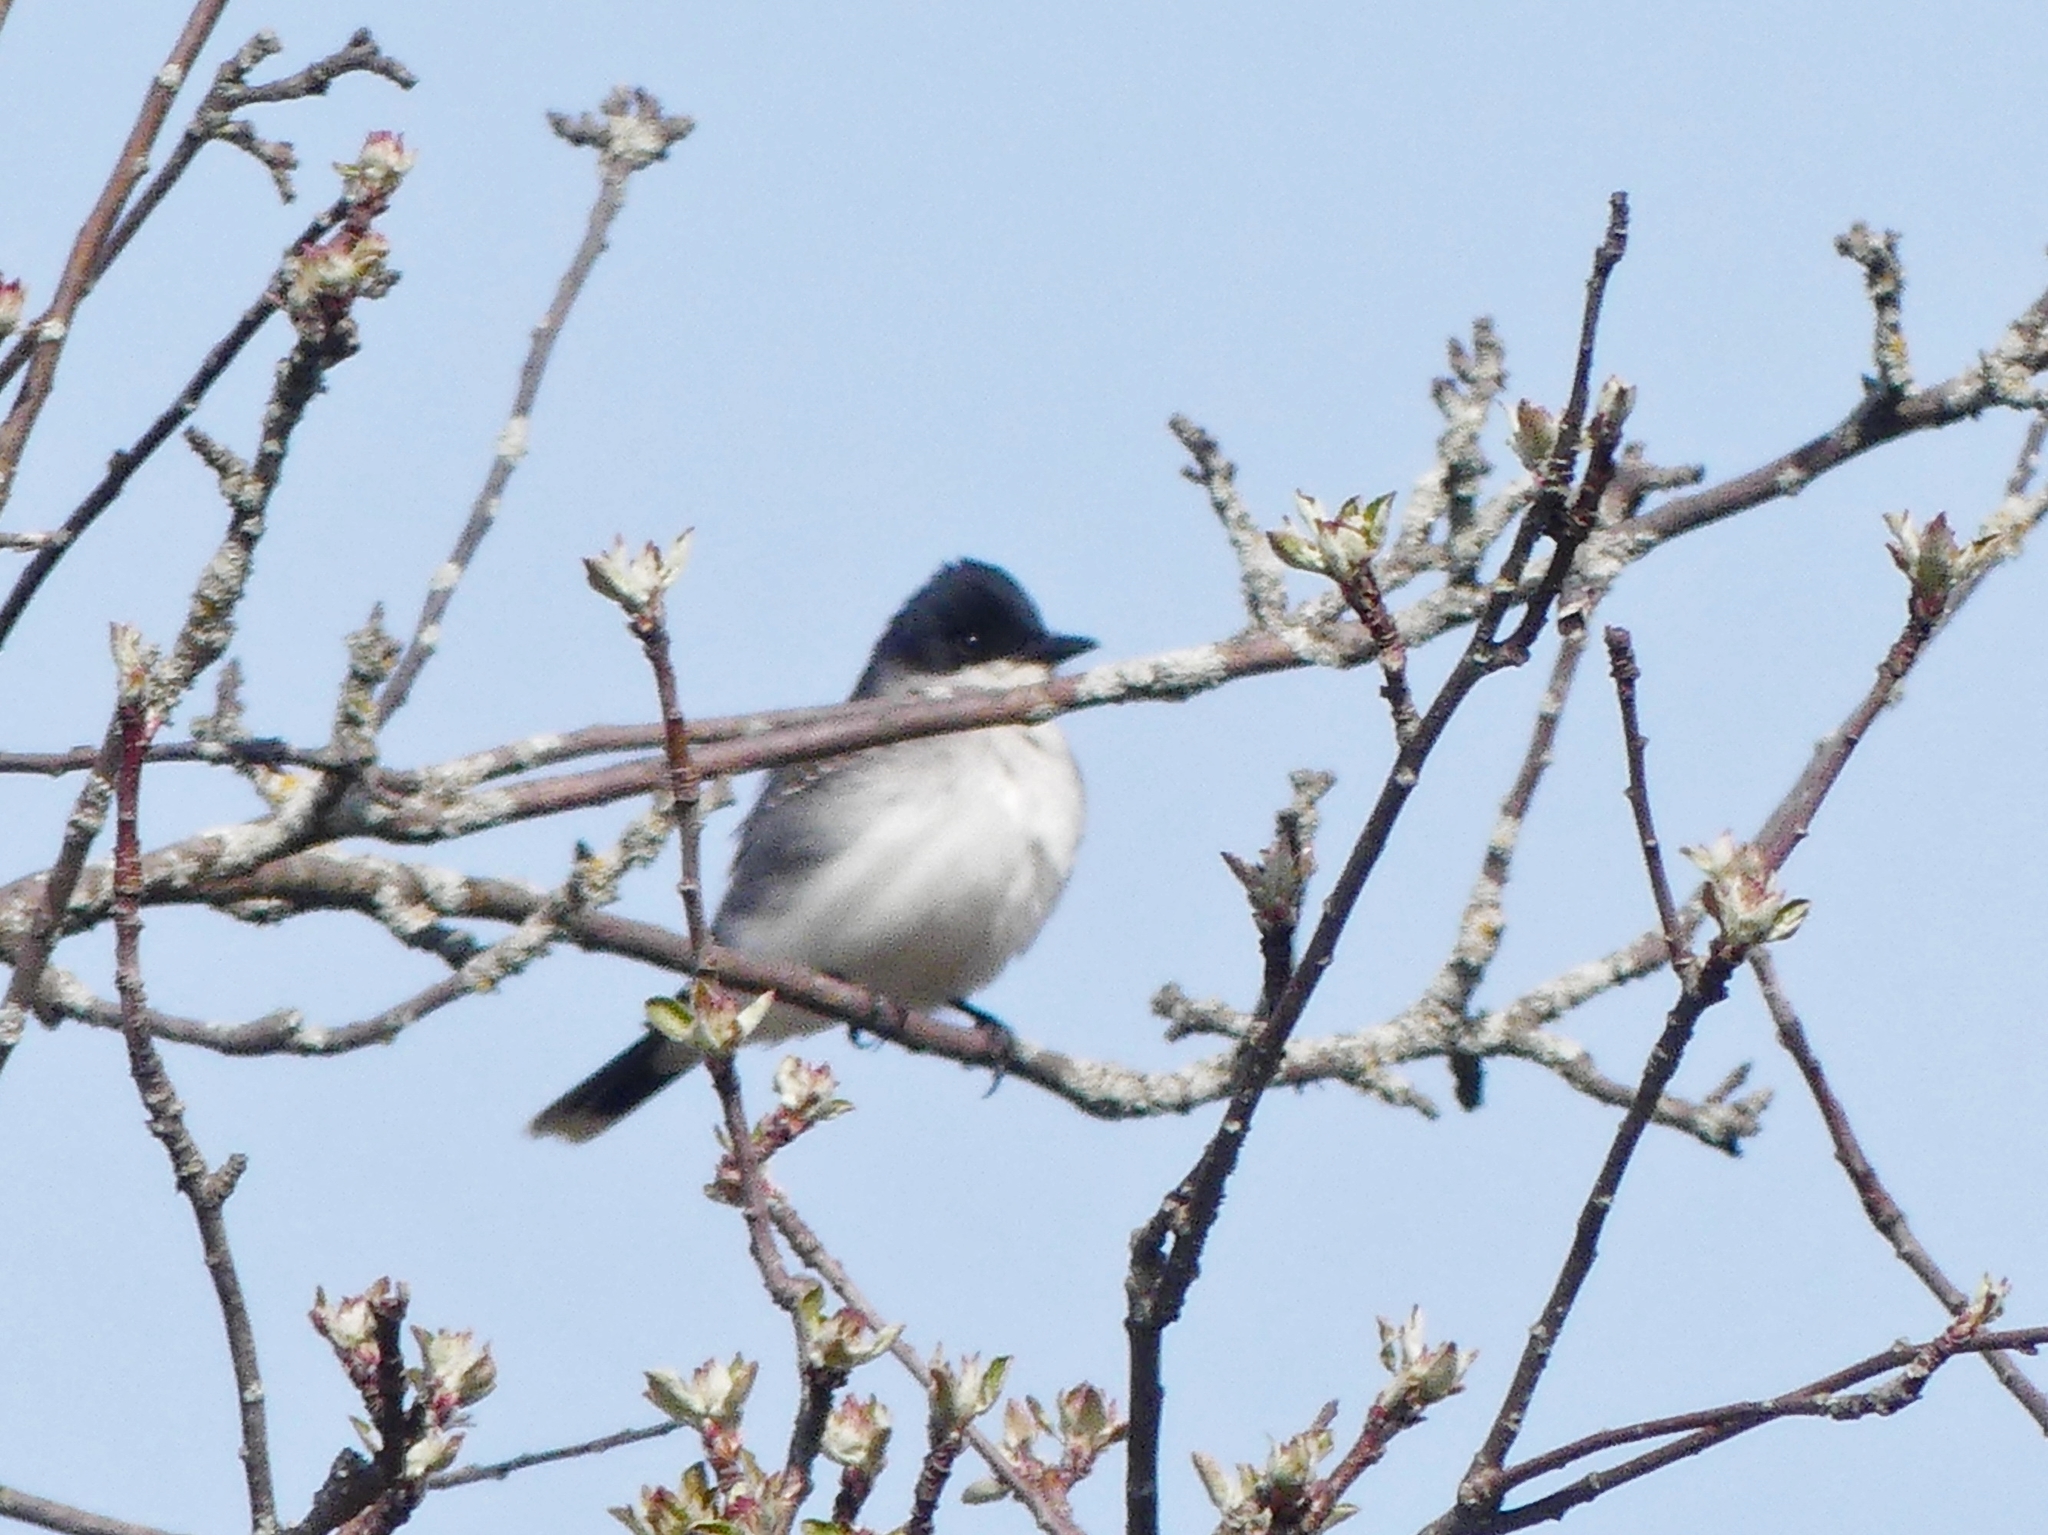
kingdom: Animalia
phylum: Chordata
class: Aves
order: Passeriformes
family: Tyrannidae
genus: Tyrannus
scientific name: Tyrannus tyrannus
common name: Eastern kingbird
